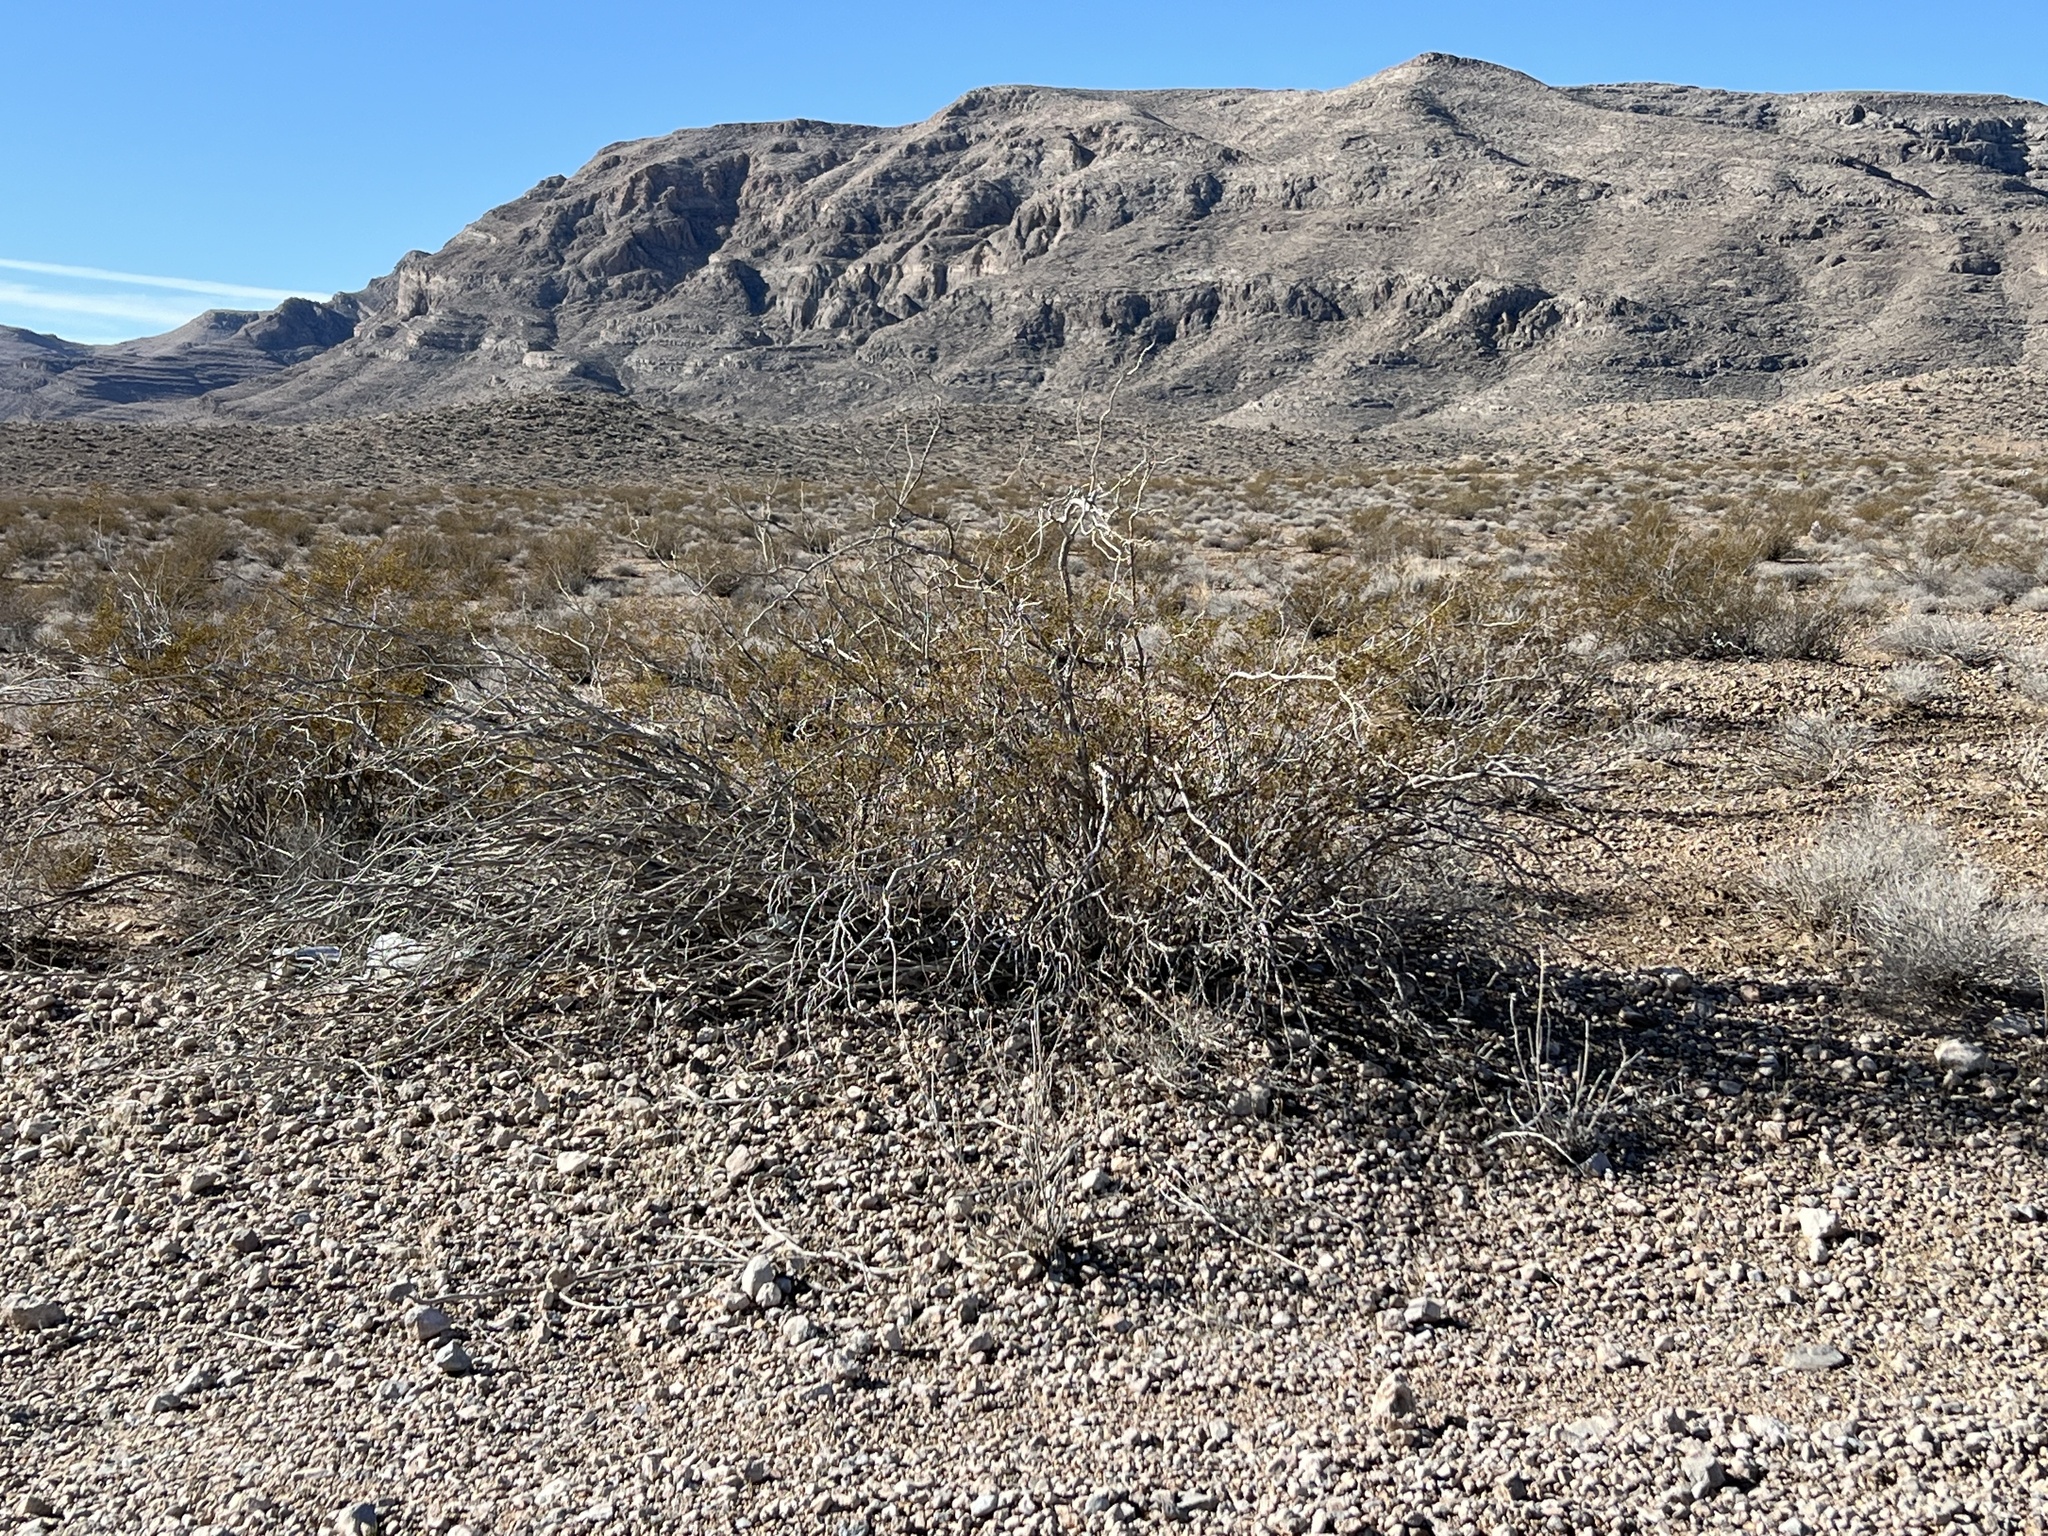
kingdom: Plantae
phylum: Tracheophyta
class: Magnoliopsida
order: Zygophyllales
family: Zygophyllaceae
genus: Larrea
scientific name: Larrea tridentata
